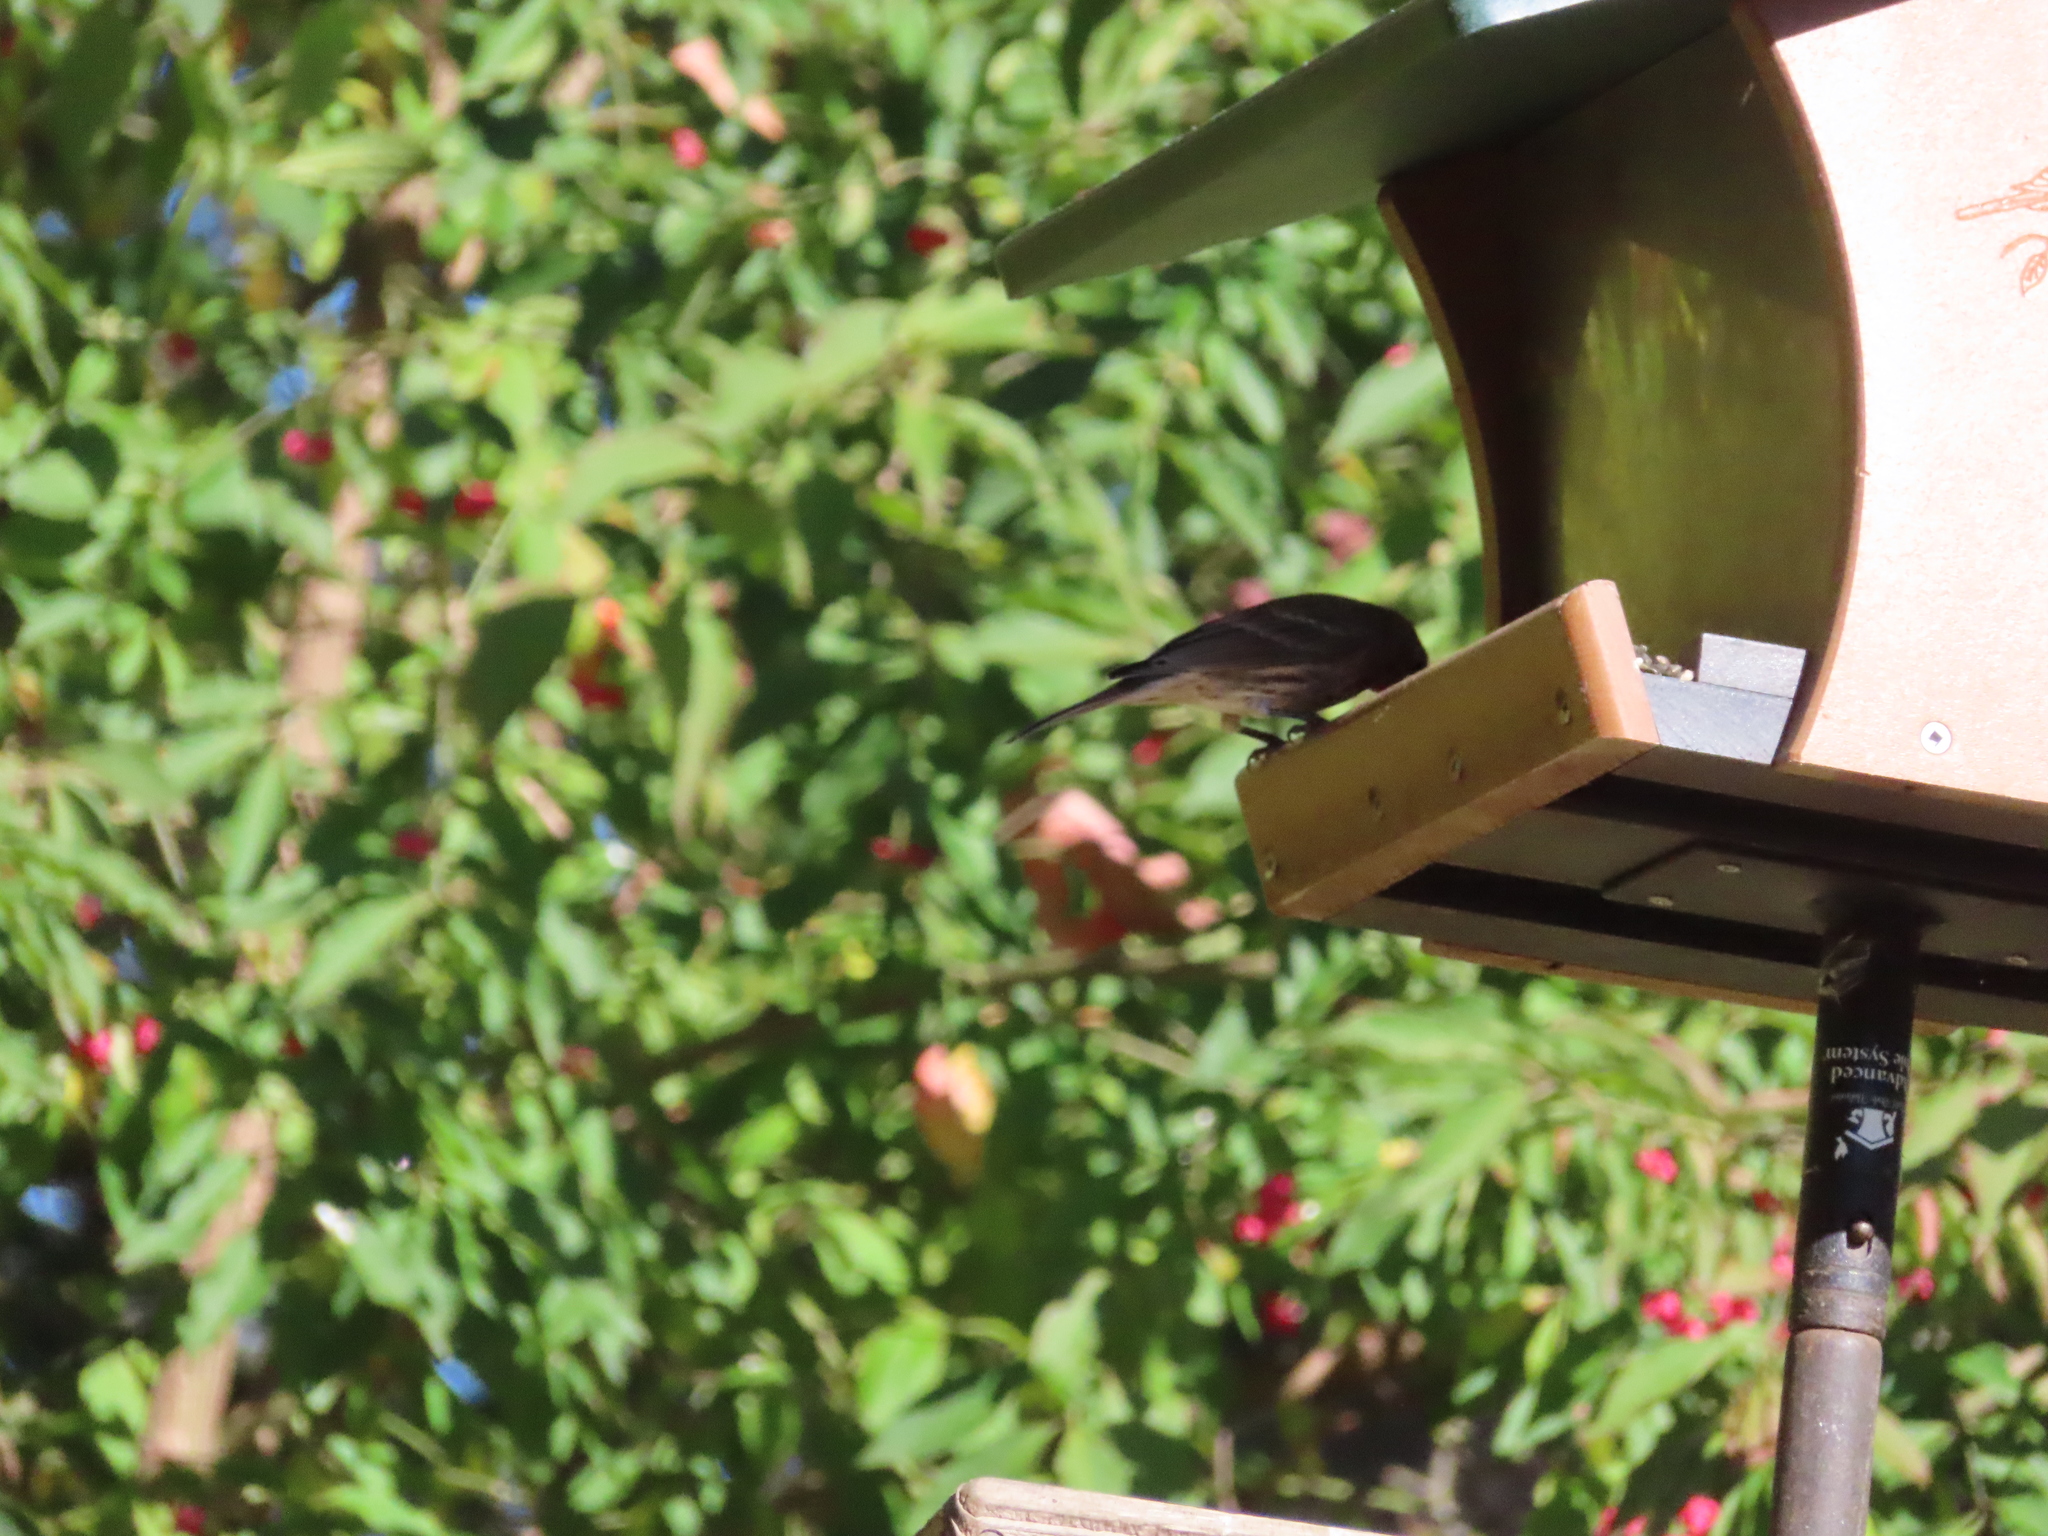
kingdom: Animalia
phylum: Chordata
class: Aves
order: Passeriformes
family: Fringillidae
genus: Haemorhous
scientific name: Haemorhous mexicanus
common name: House finch
